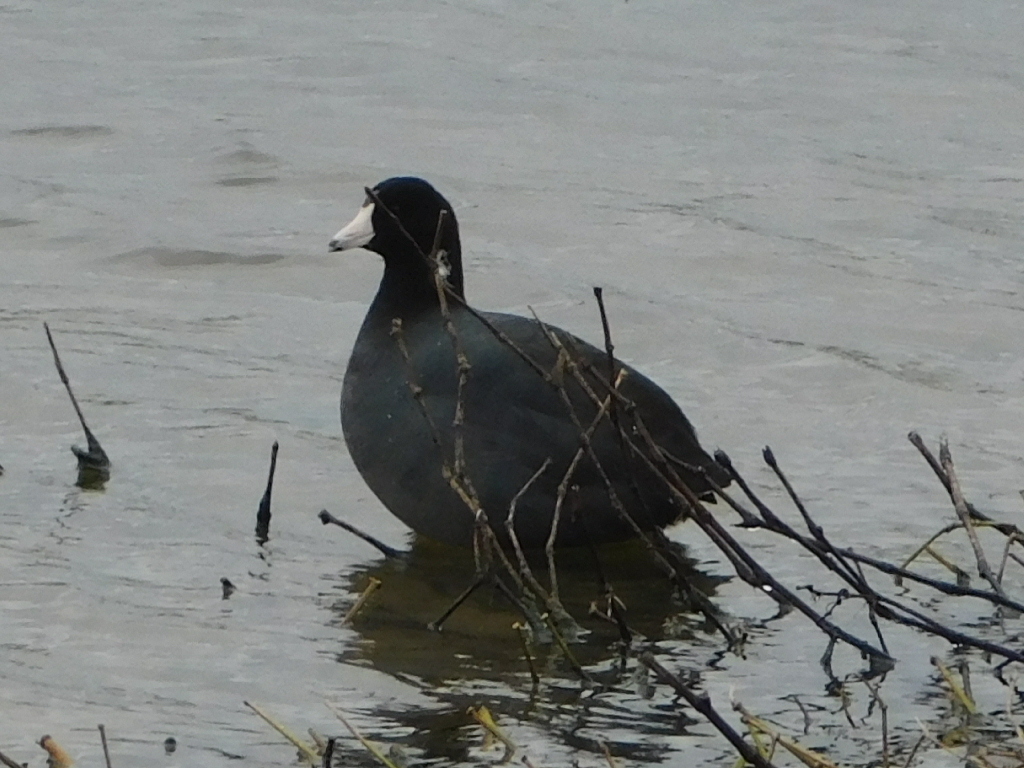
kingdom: Animalia
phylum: Chordata
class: Aves
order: Gruiformes
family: Rallidae
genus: Fulica
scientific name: Fulica americana
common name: American coot
